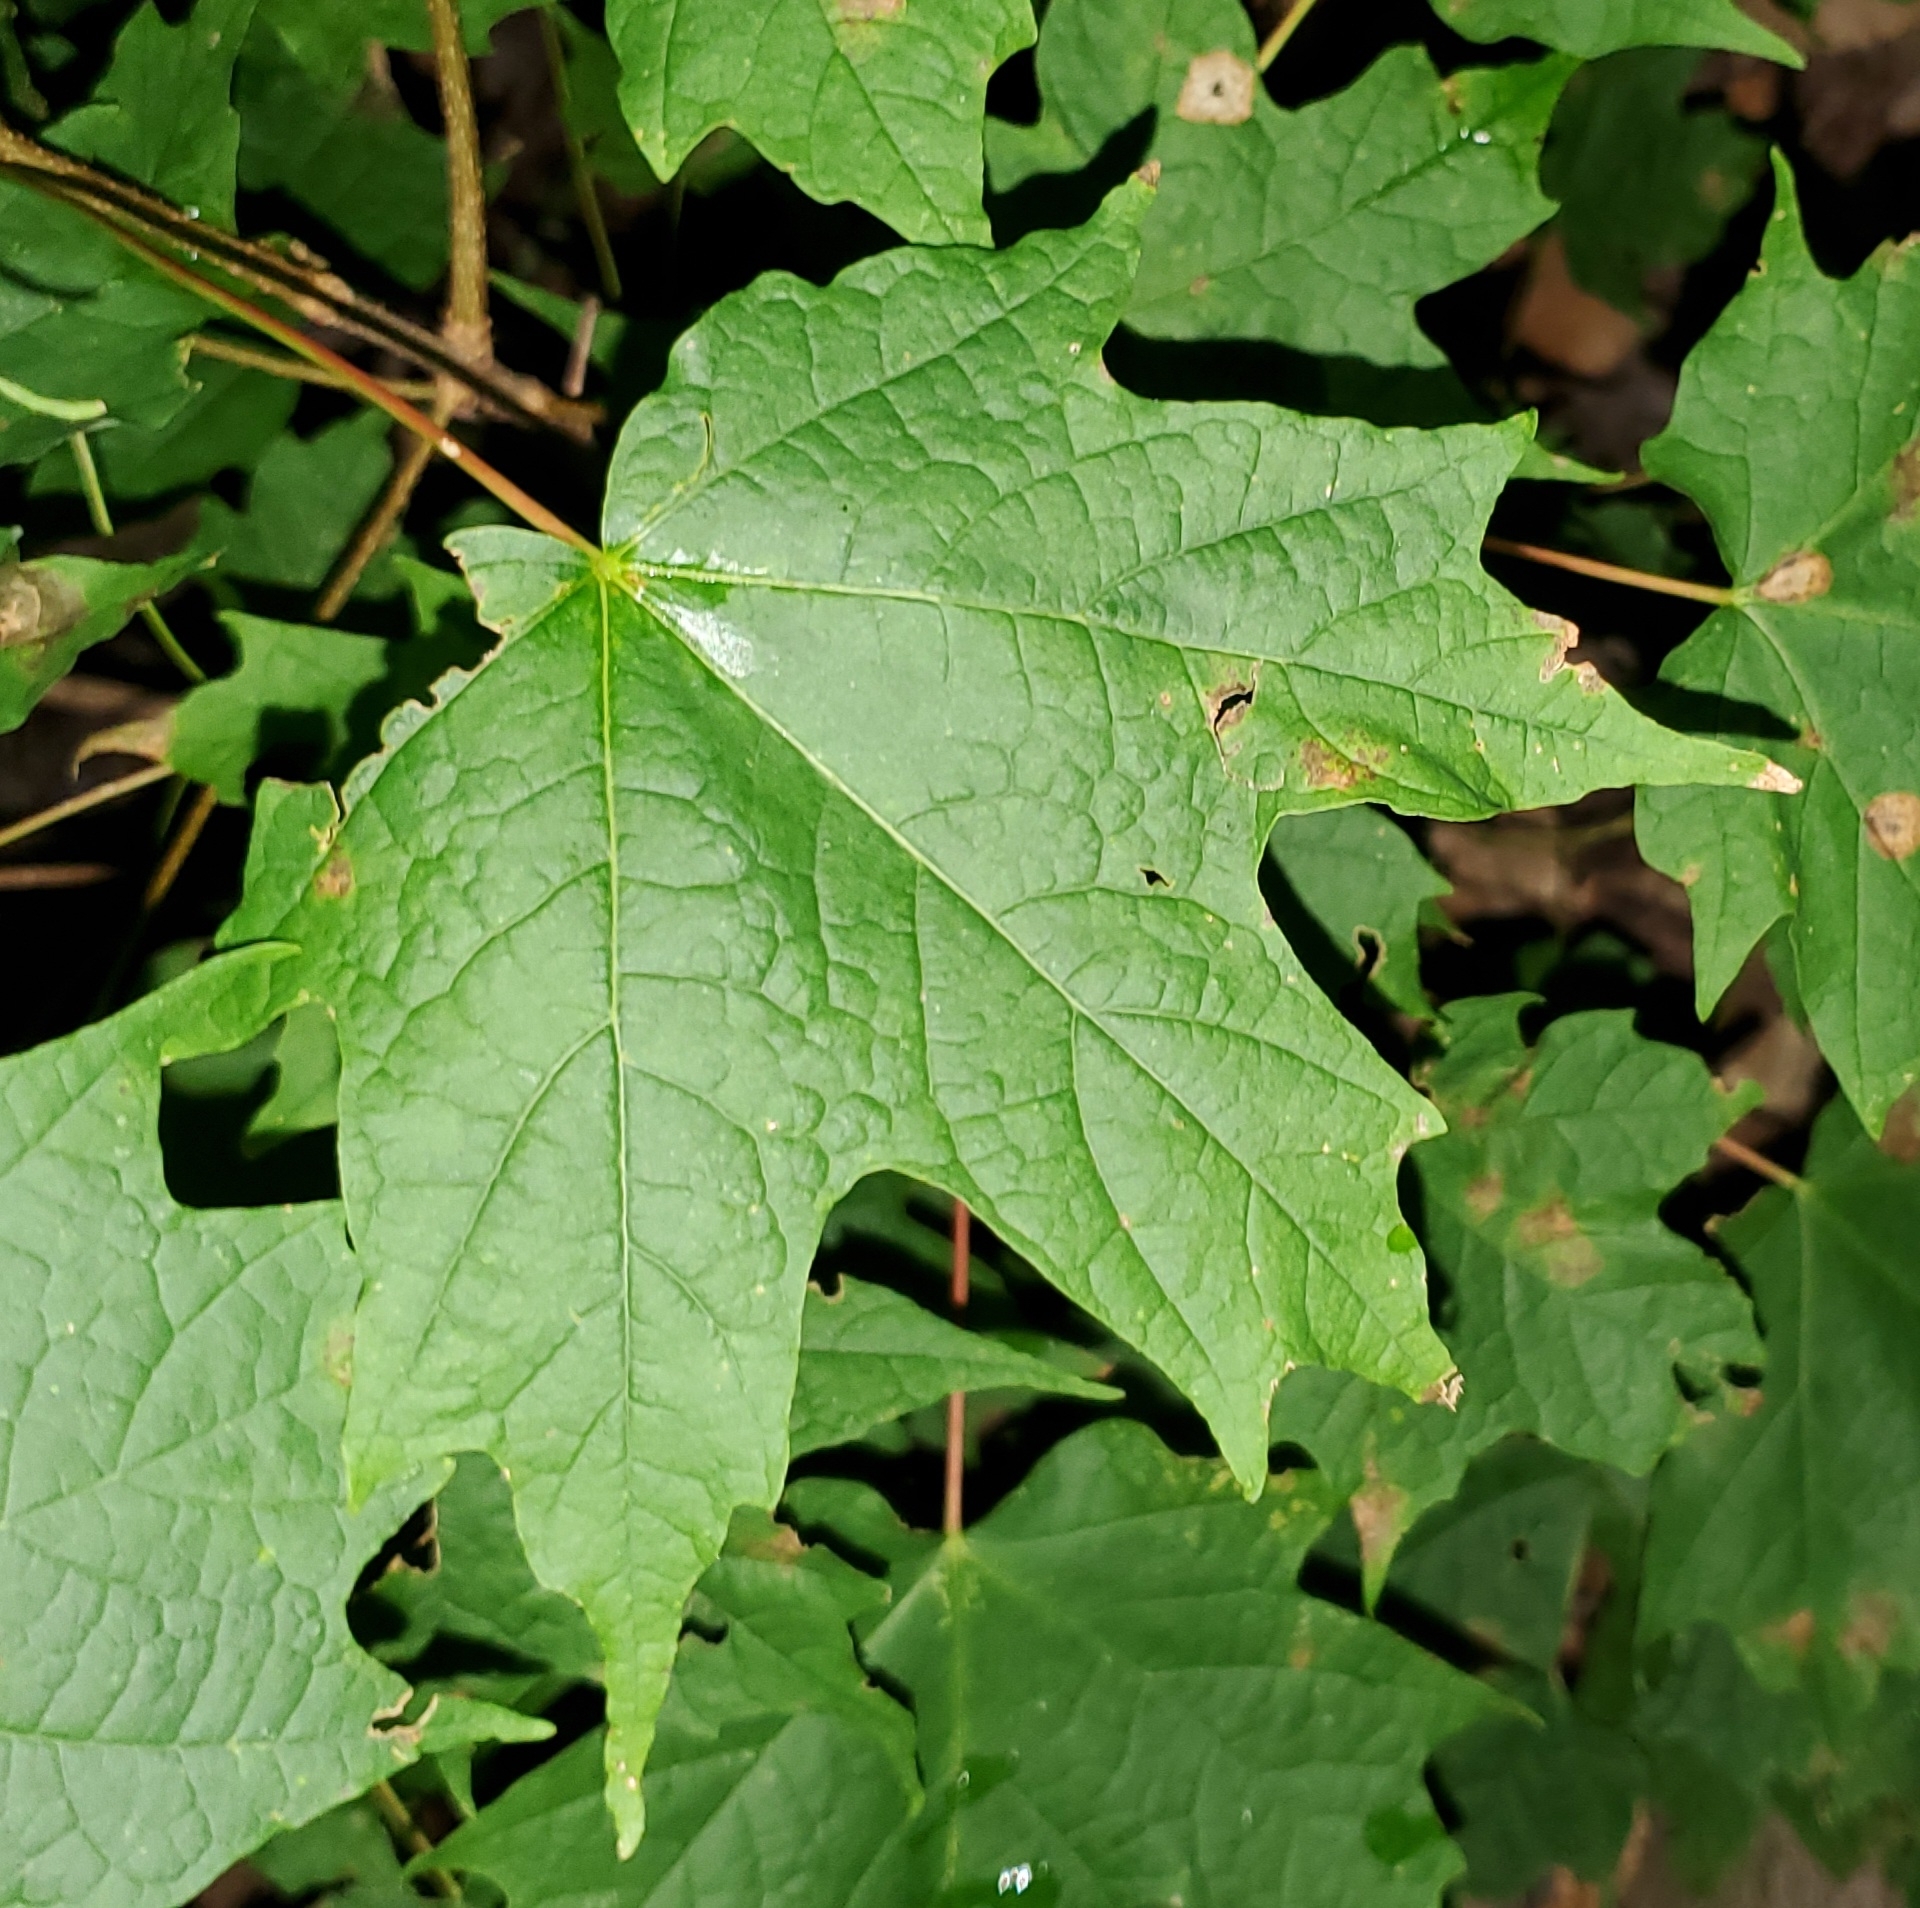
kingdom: Plantae
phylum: Tracheophyta
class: Magnoliopsida
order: Sapindales
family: Sapindaceae
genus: Acer
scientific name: Acer saccharum
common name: Sugar maple
